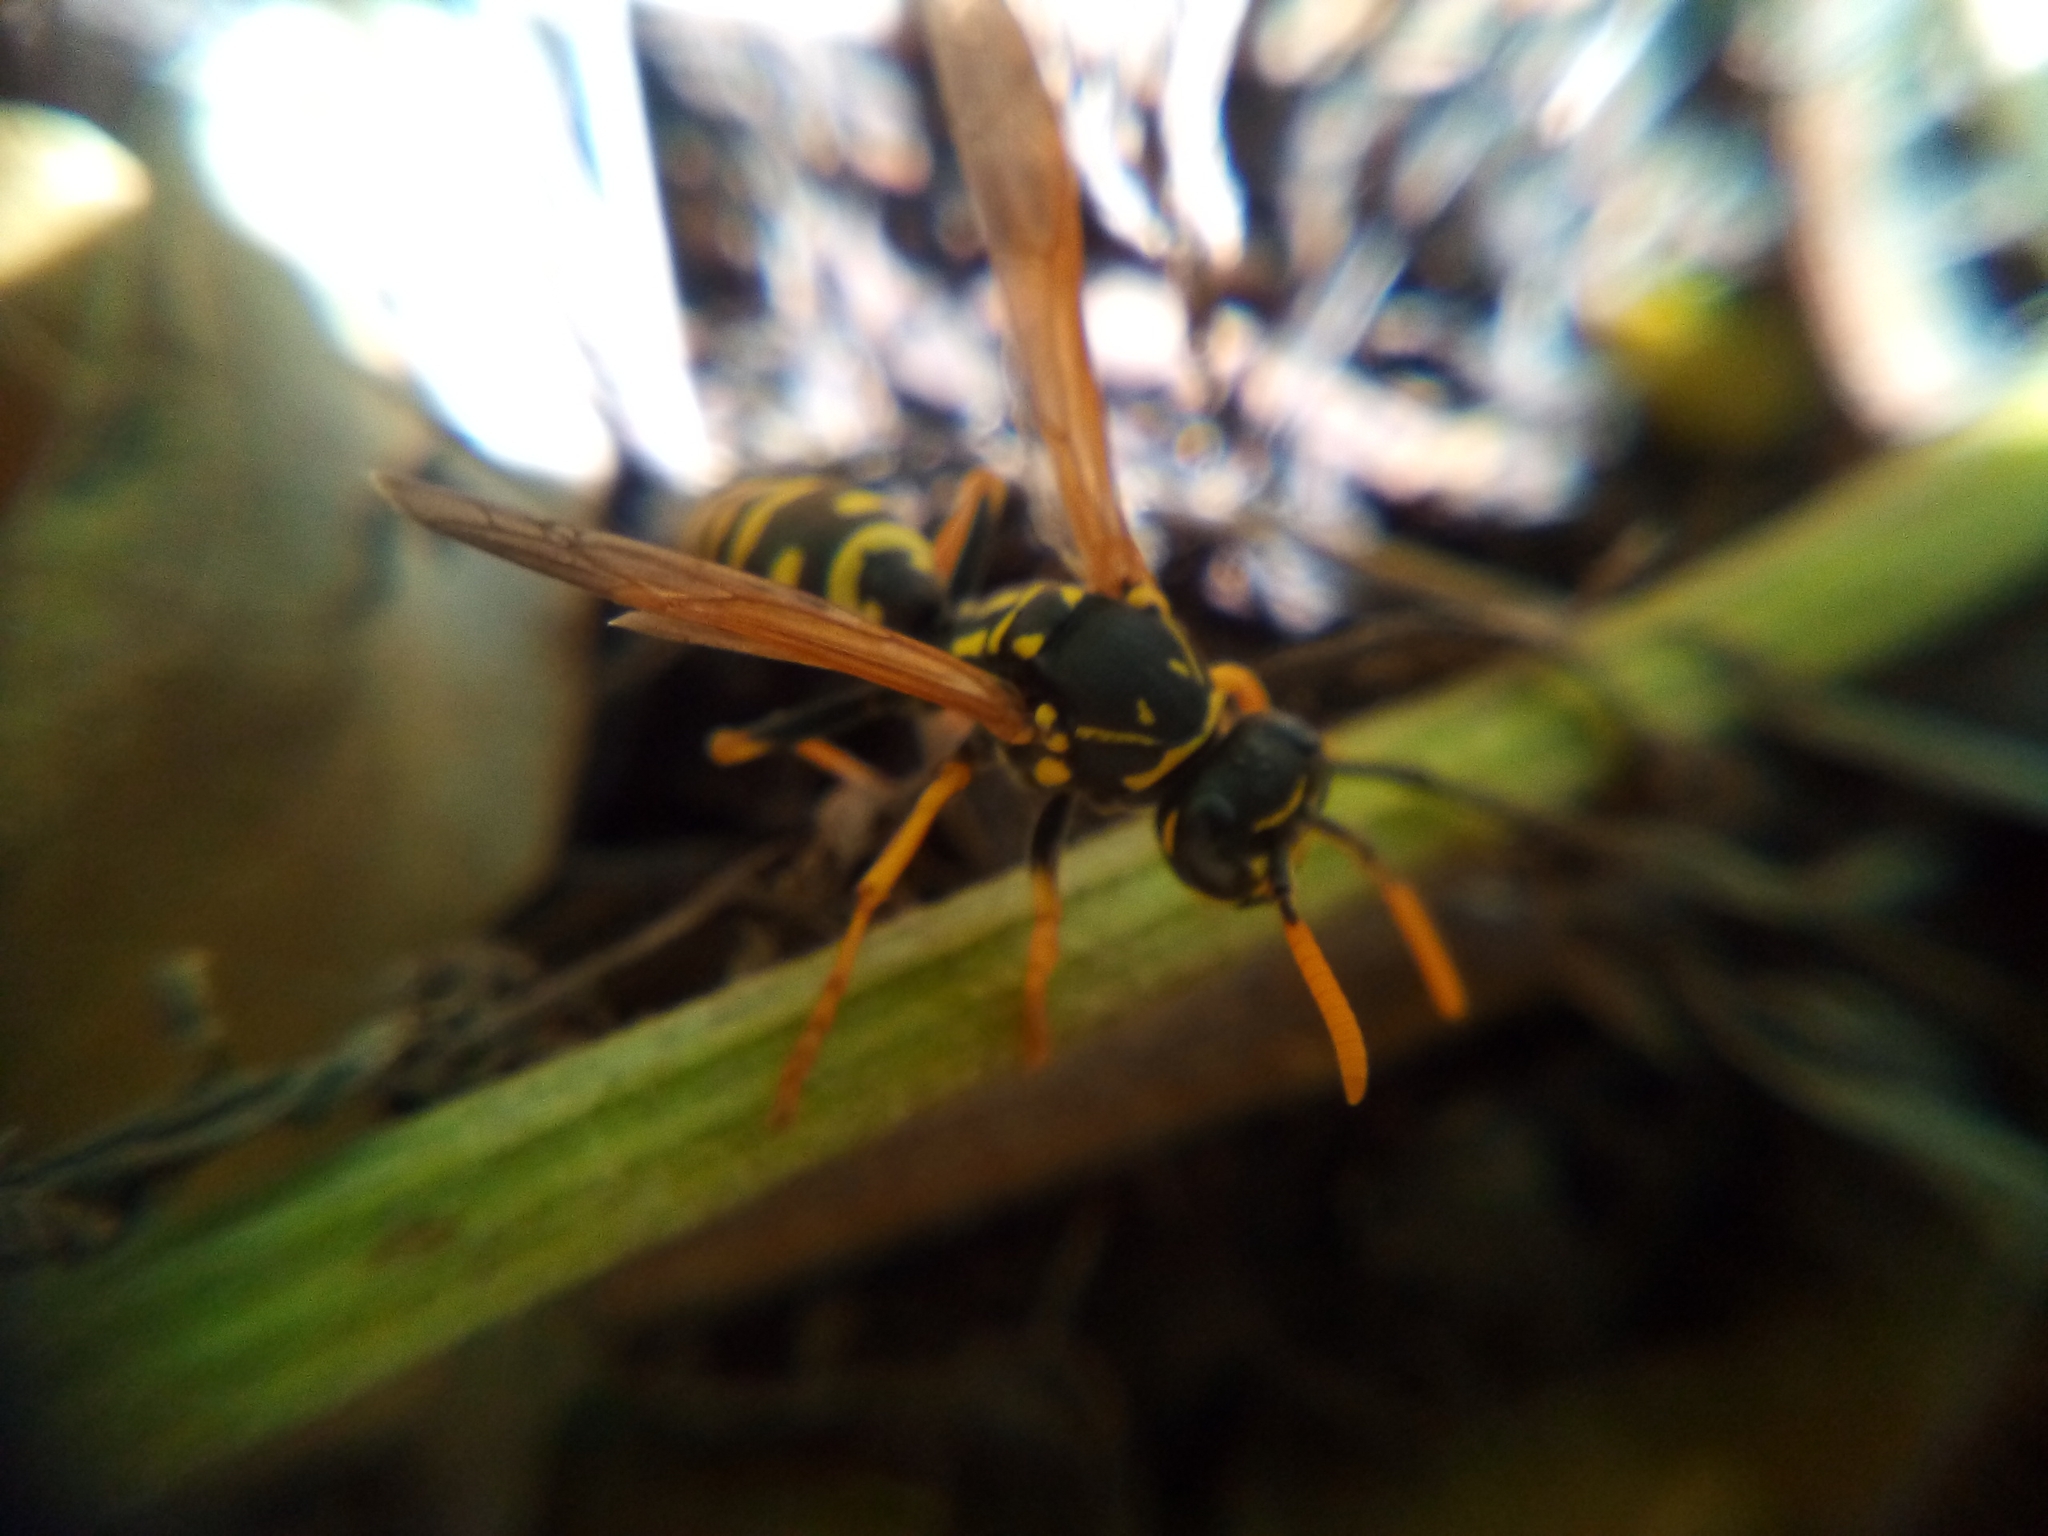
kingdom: Animalia
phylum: Arthropoda
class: Insecta
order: Hymenoptera
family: Eumenidae
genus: Polistes
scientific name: Polistes dominula
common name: Paper wasp
